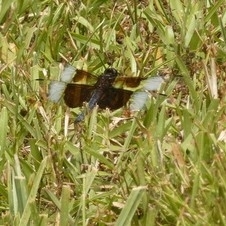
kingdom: Animalia
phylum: Arthropoda
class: Insecta
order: Odonata
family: Libellulidae
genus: Libellula
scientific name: Libellula luctuosa
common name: Widow skimmer
